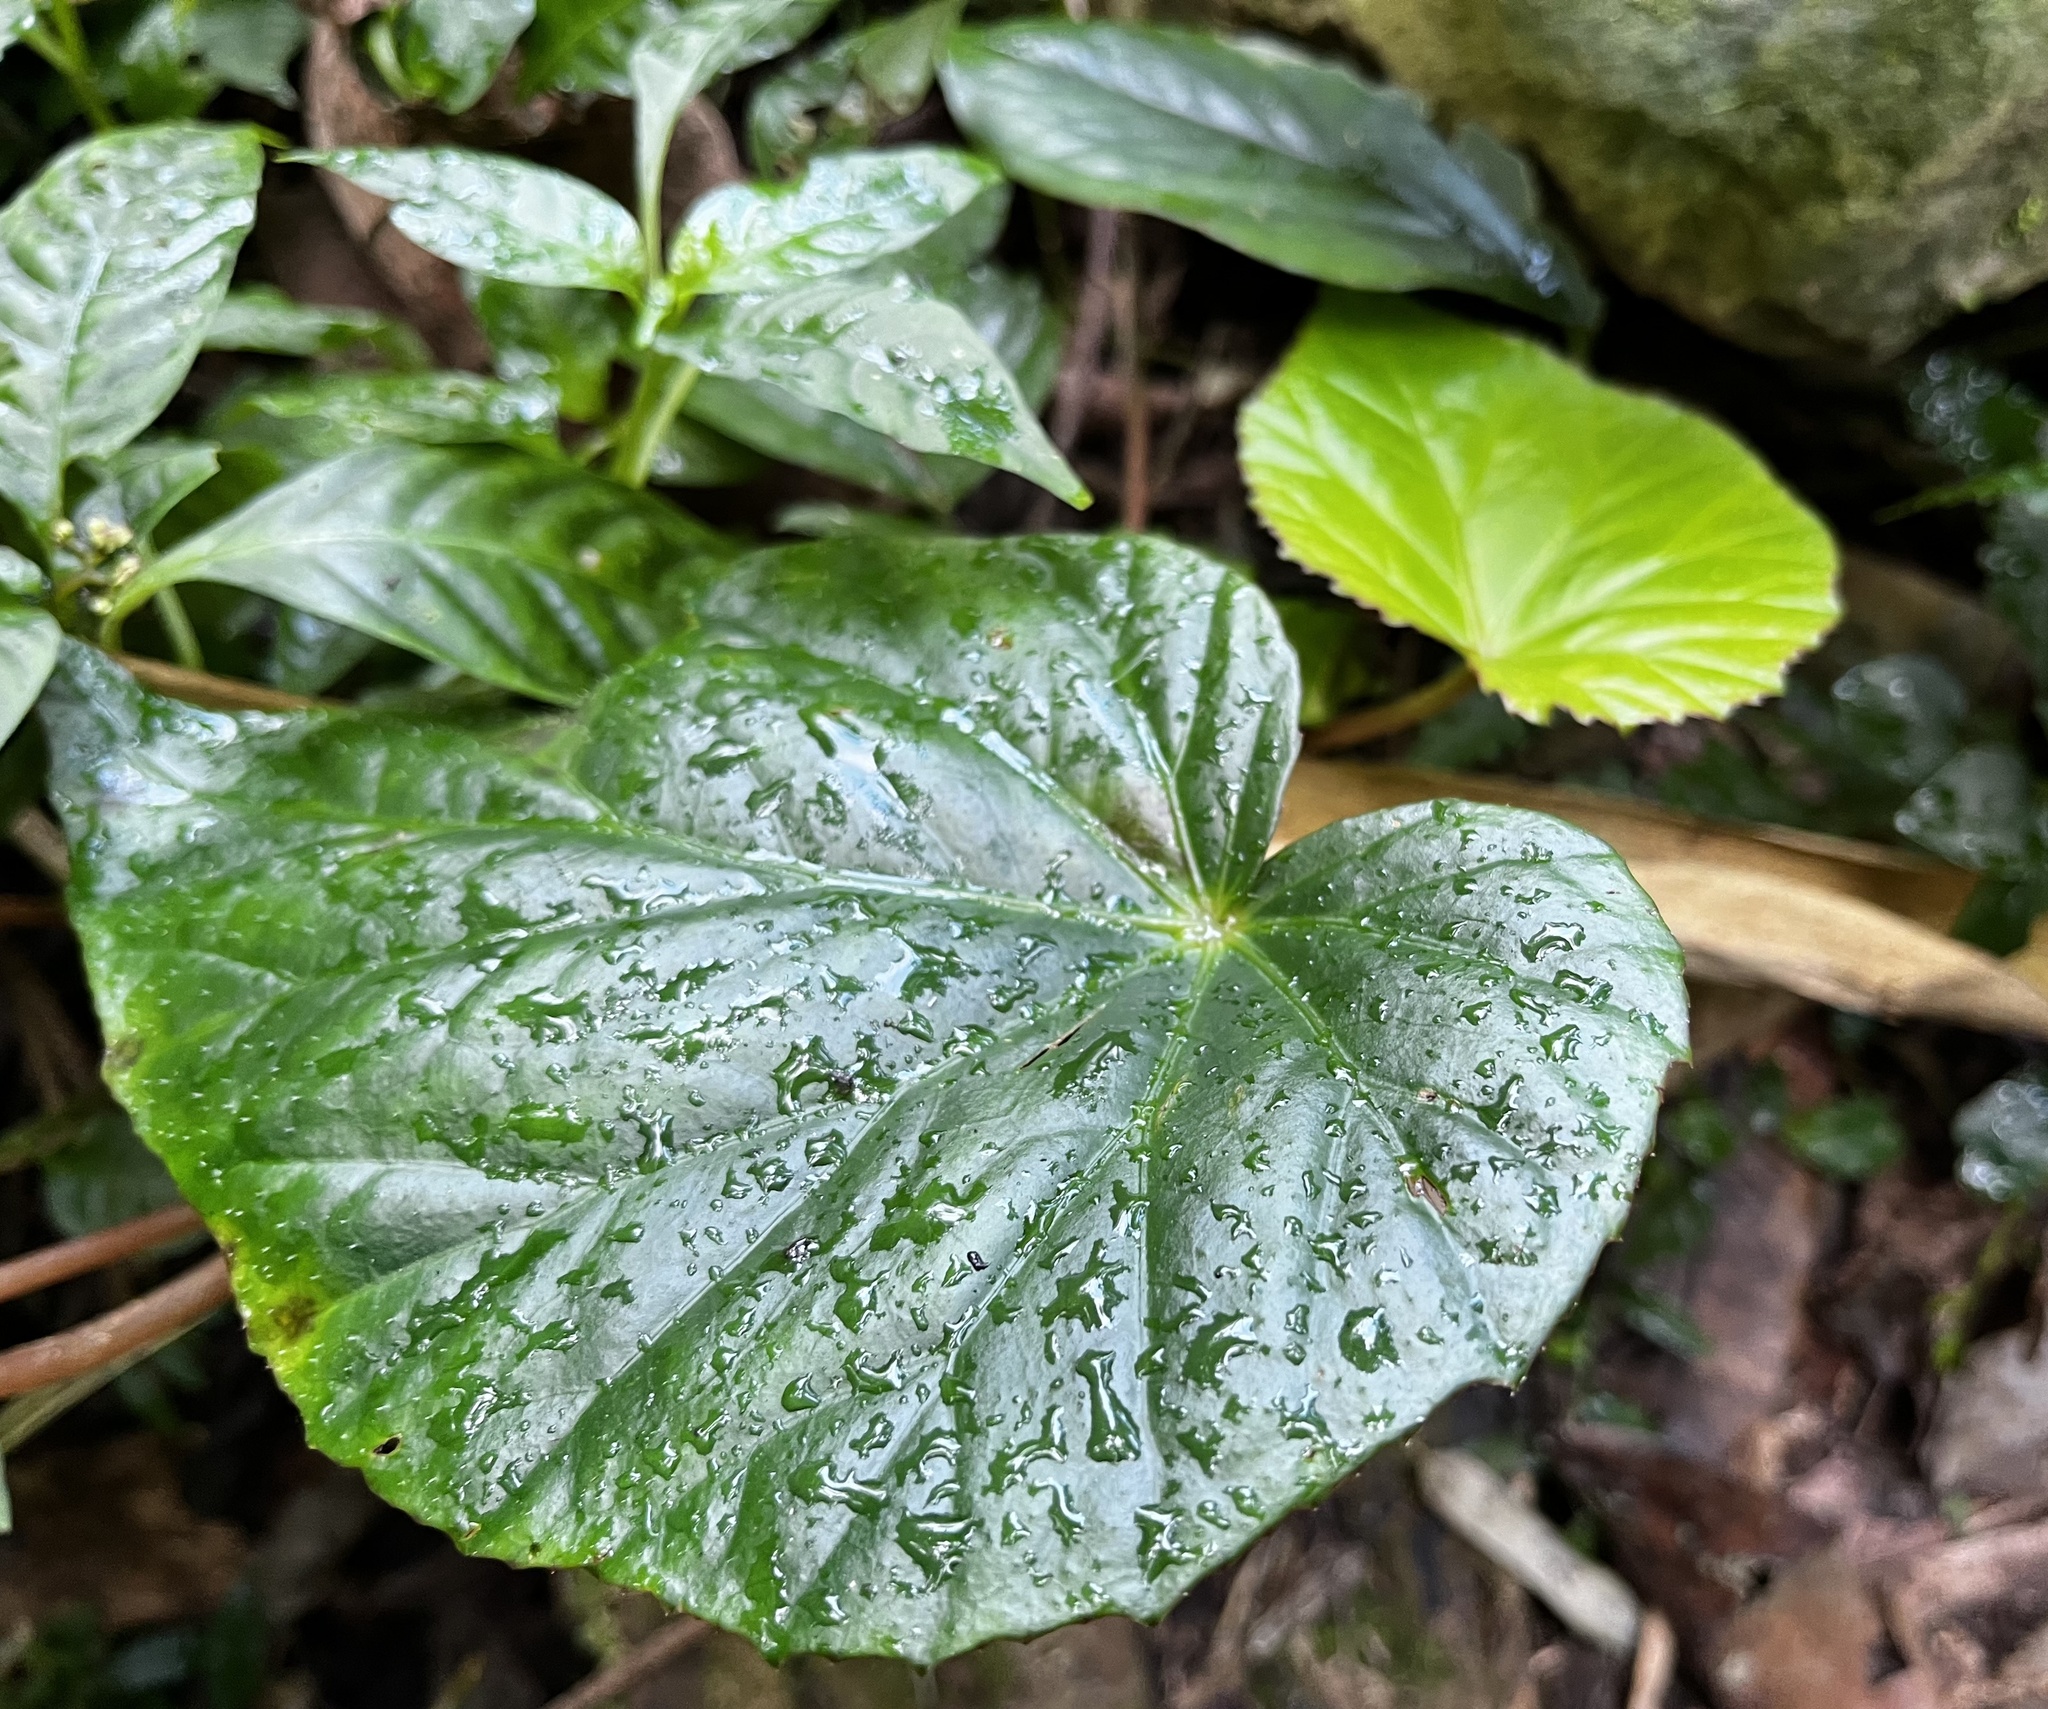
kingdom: Plantae
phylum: Tracheophyta
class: Magnoliopsida
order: Cucurbitales
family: Begoniaceae
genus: Begonia
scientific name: Begonia chitoensis
